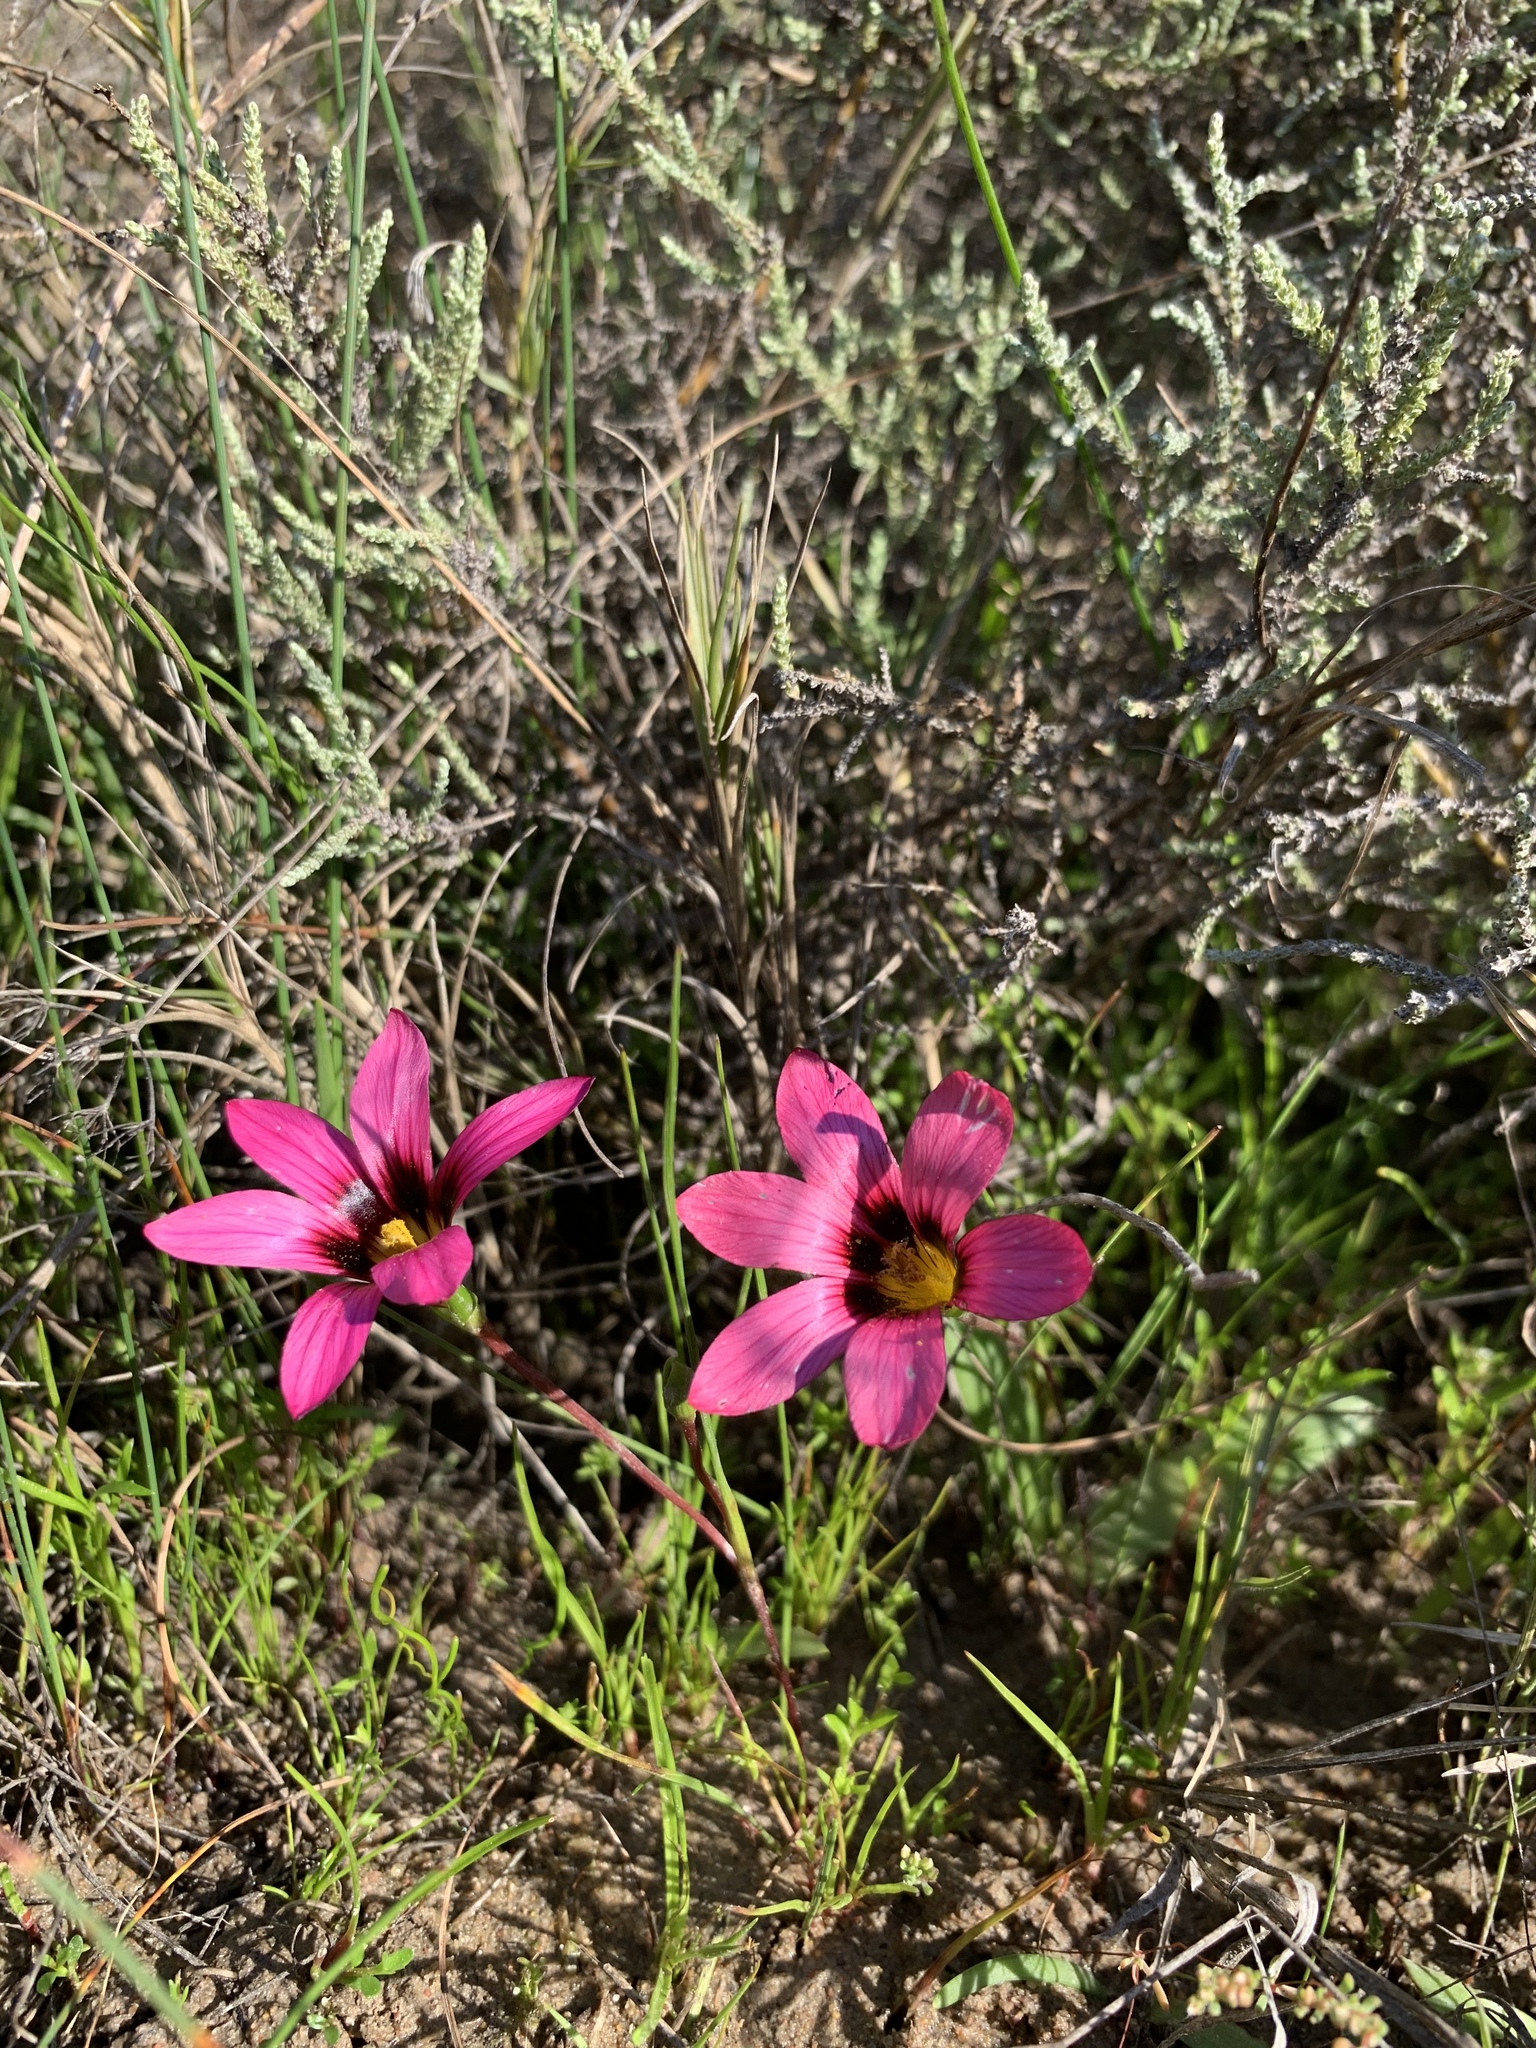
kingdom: Plantae
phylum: Tracheophyta
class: Liliopsida
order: Asparagales
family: Iridaceae
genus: Romulea
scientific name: Romulea cruciata
